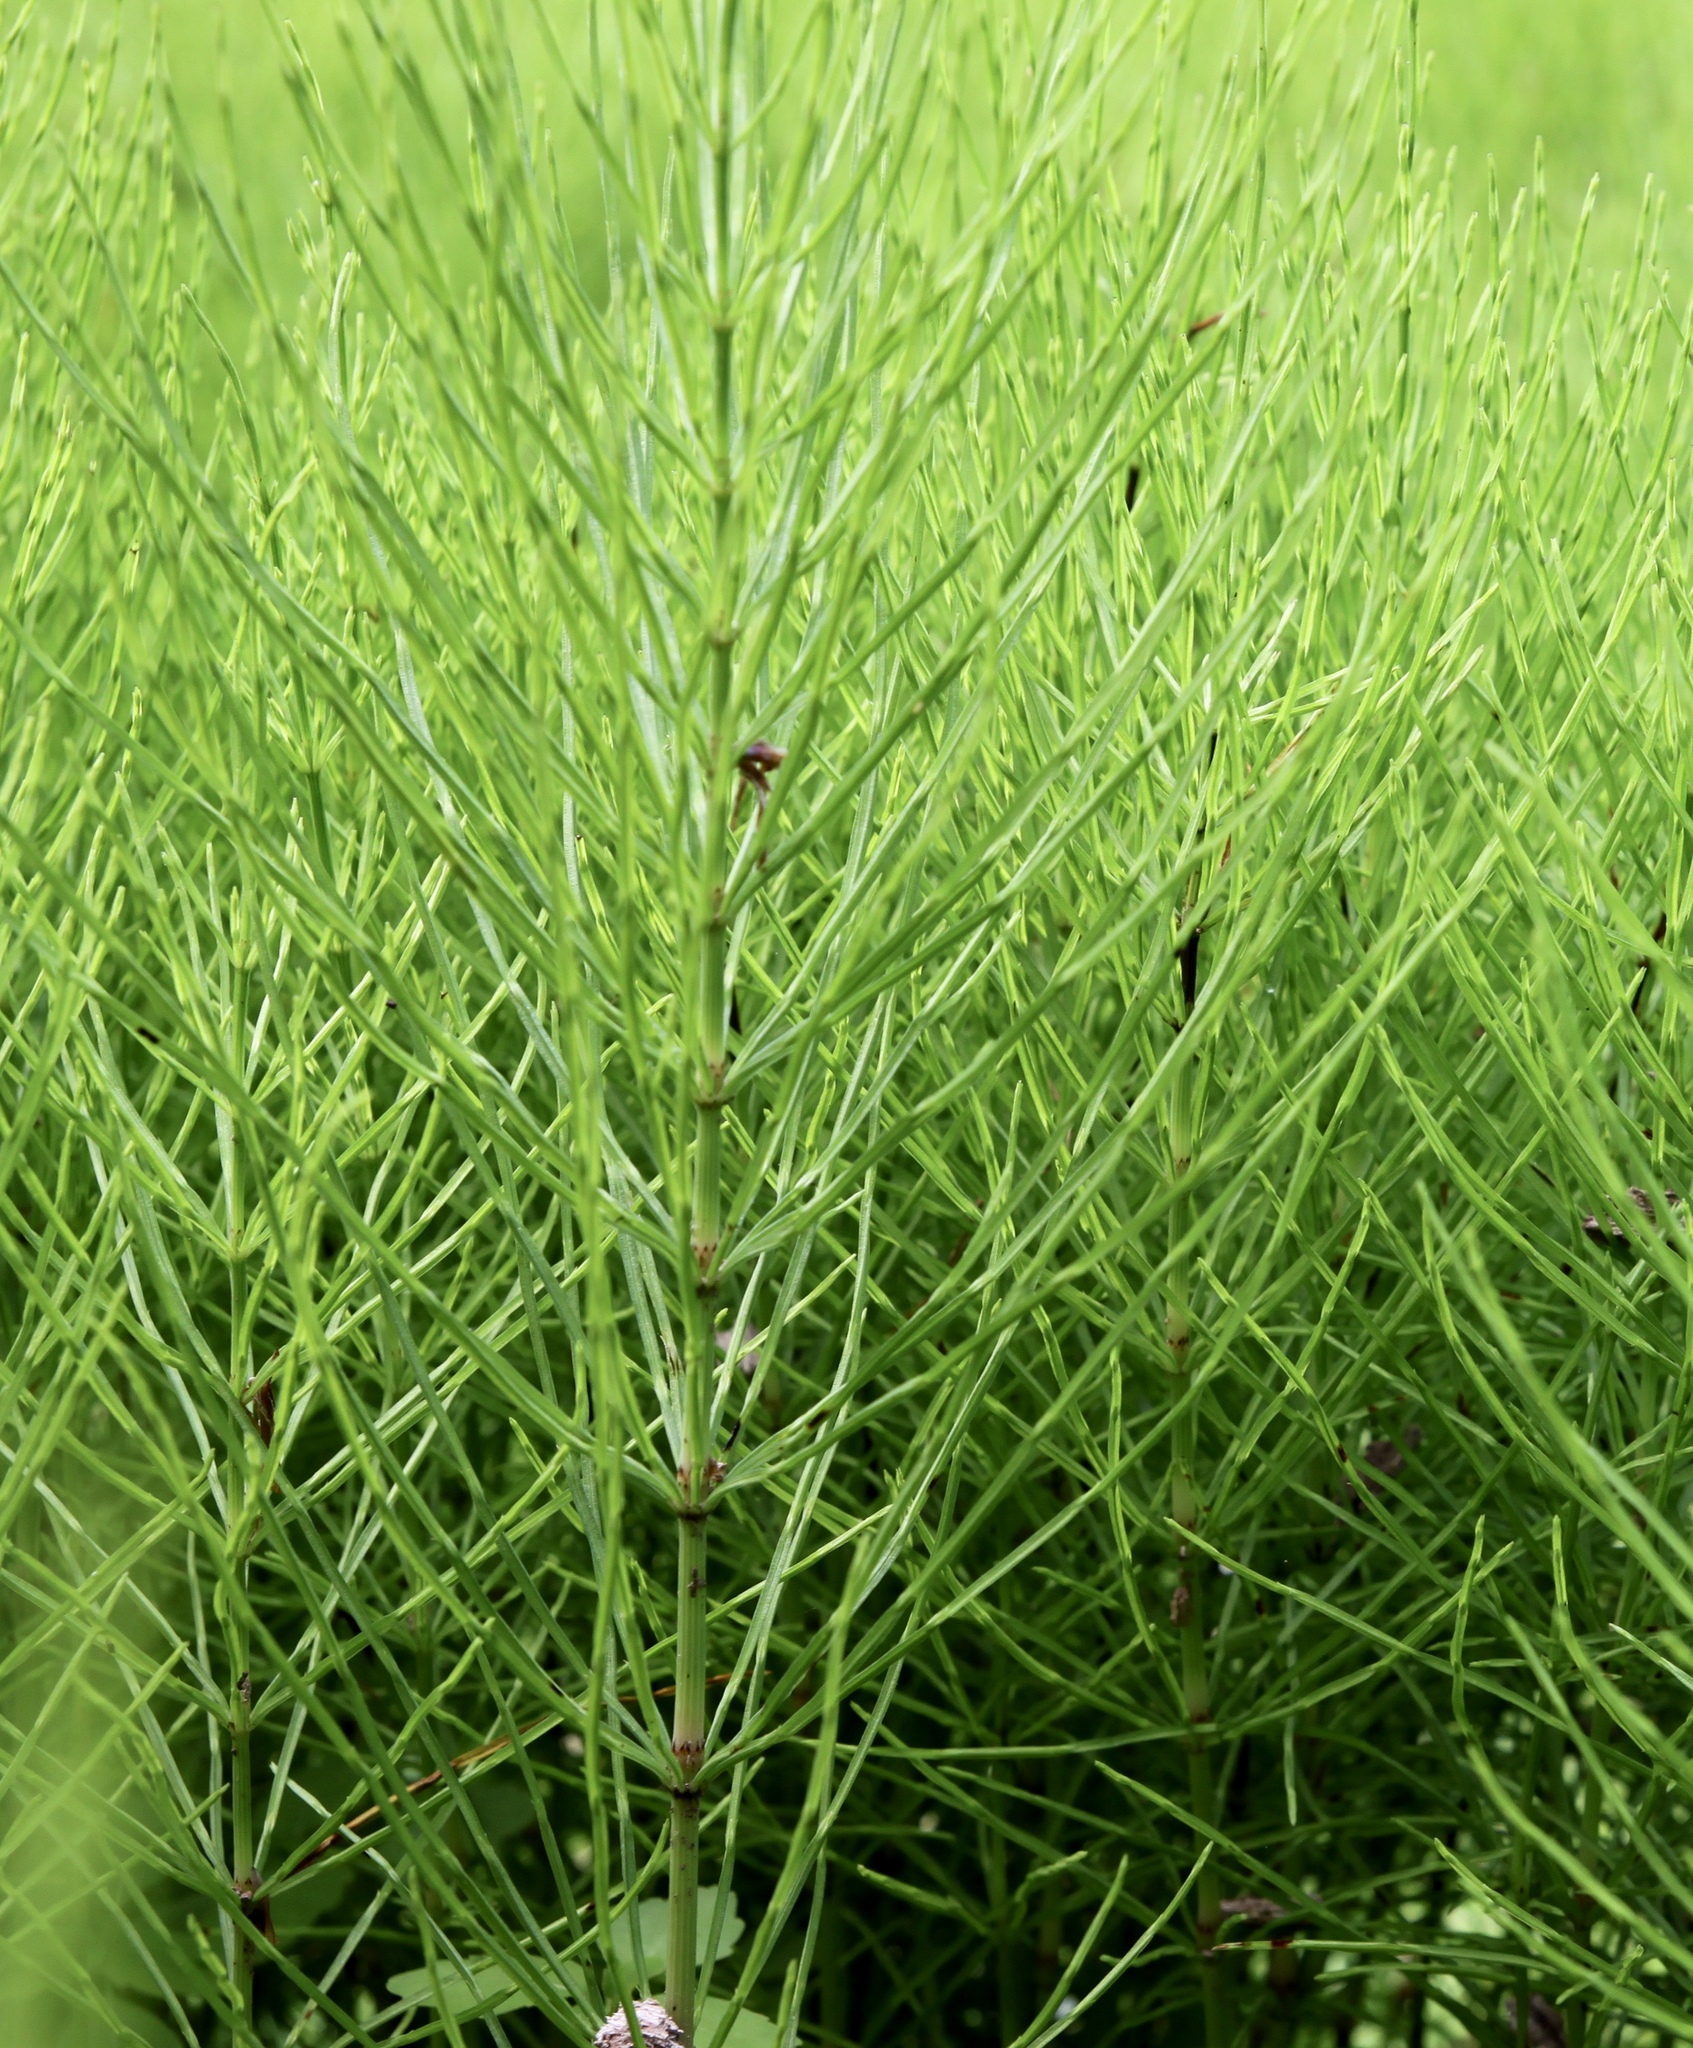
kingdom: Plantae
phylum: Tracheophyta
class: Polypodiopsida
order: Equisetales
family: Equisetaceae
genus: Equisetum
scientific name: Equisetum arvense
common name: Field horsetail
